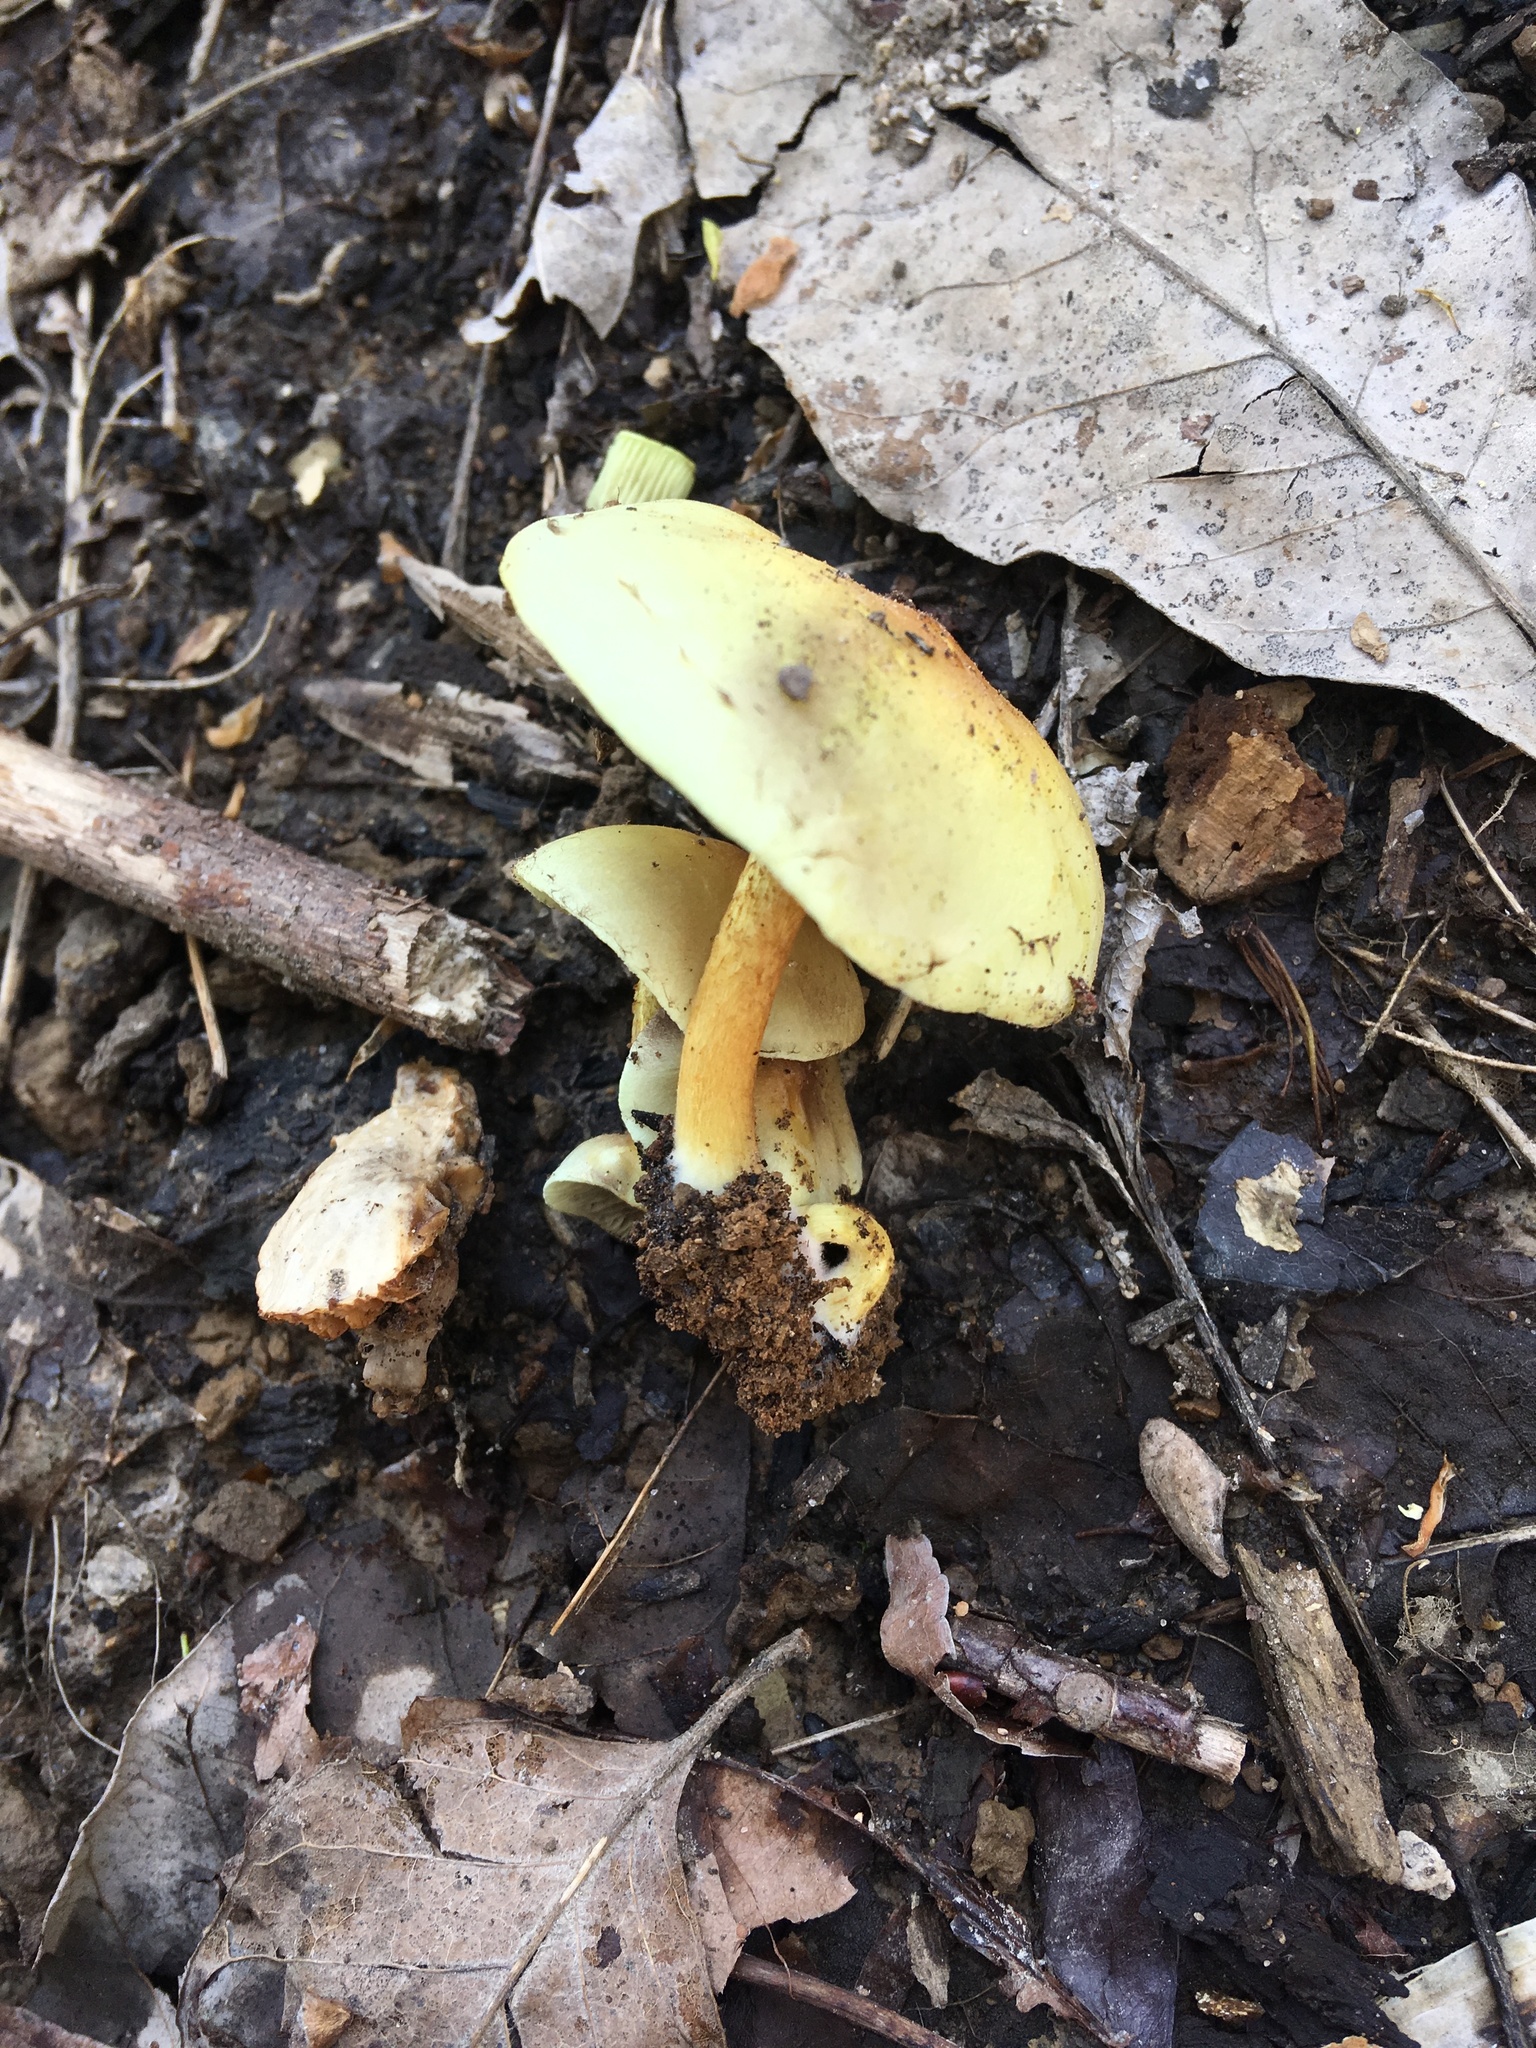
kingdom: Fungi
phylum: Basidiomycota
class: Agaricomycetes
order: Agaricales
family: Strophariaceae
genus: Hypholoma
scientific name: Hypholoma fasciculare
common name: Sulphur tuft
